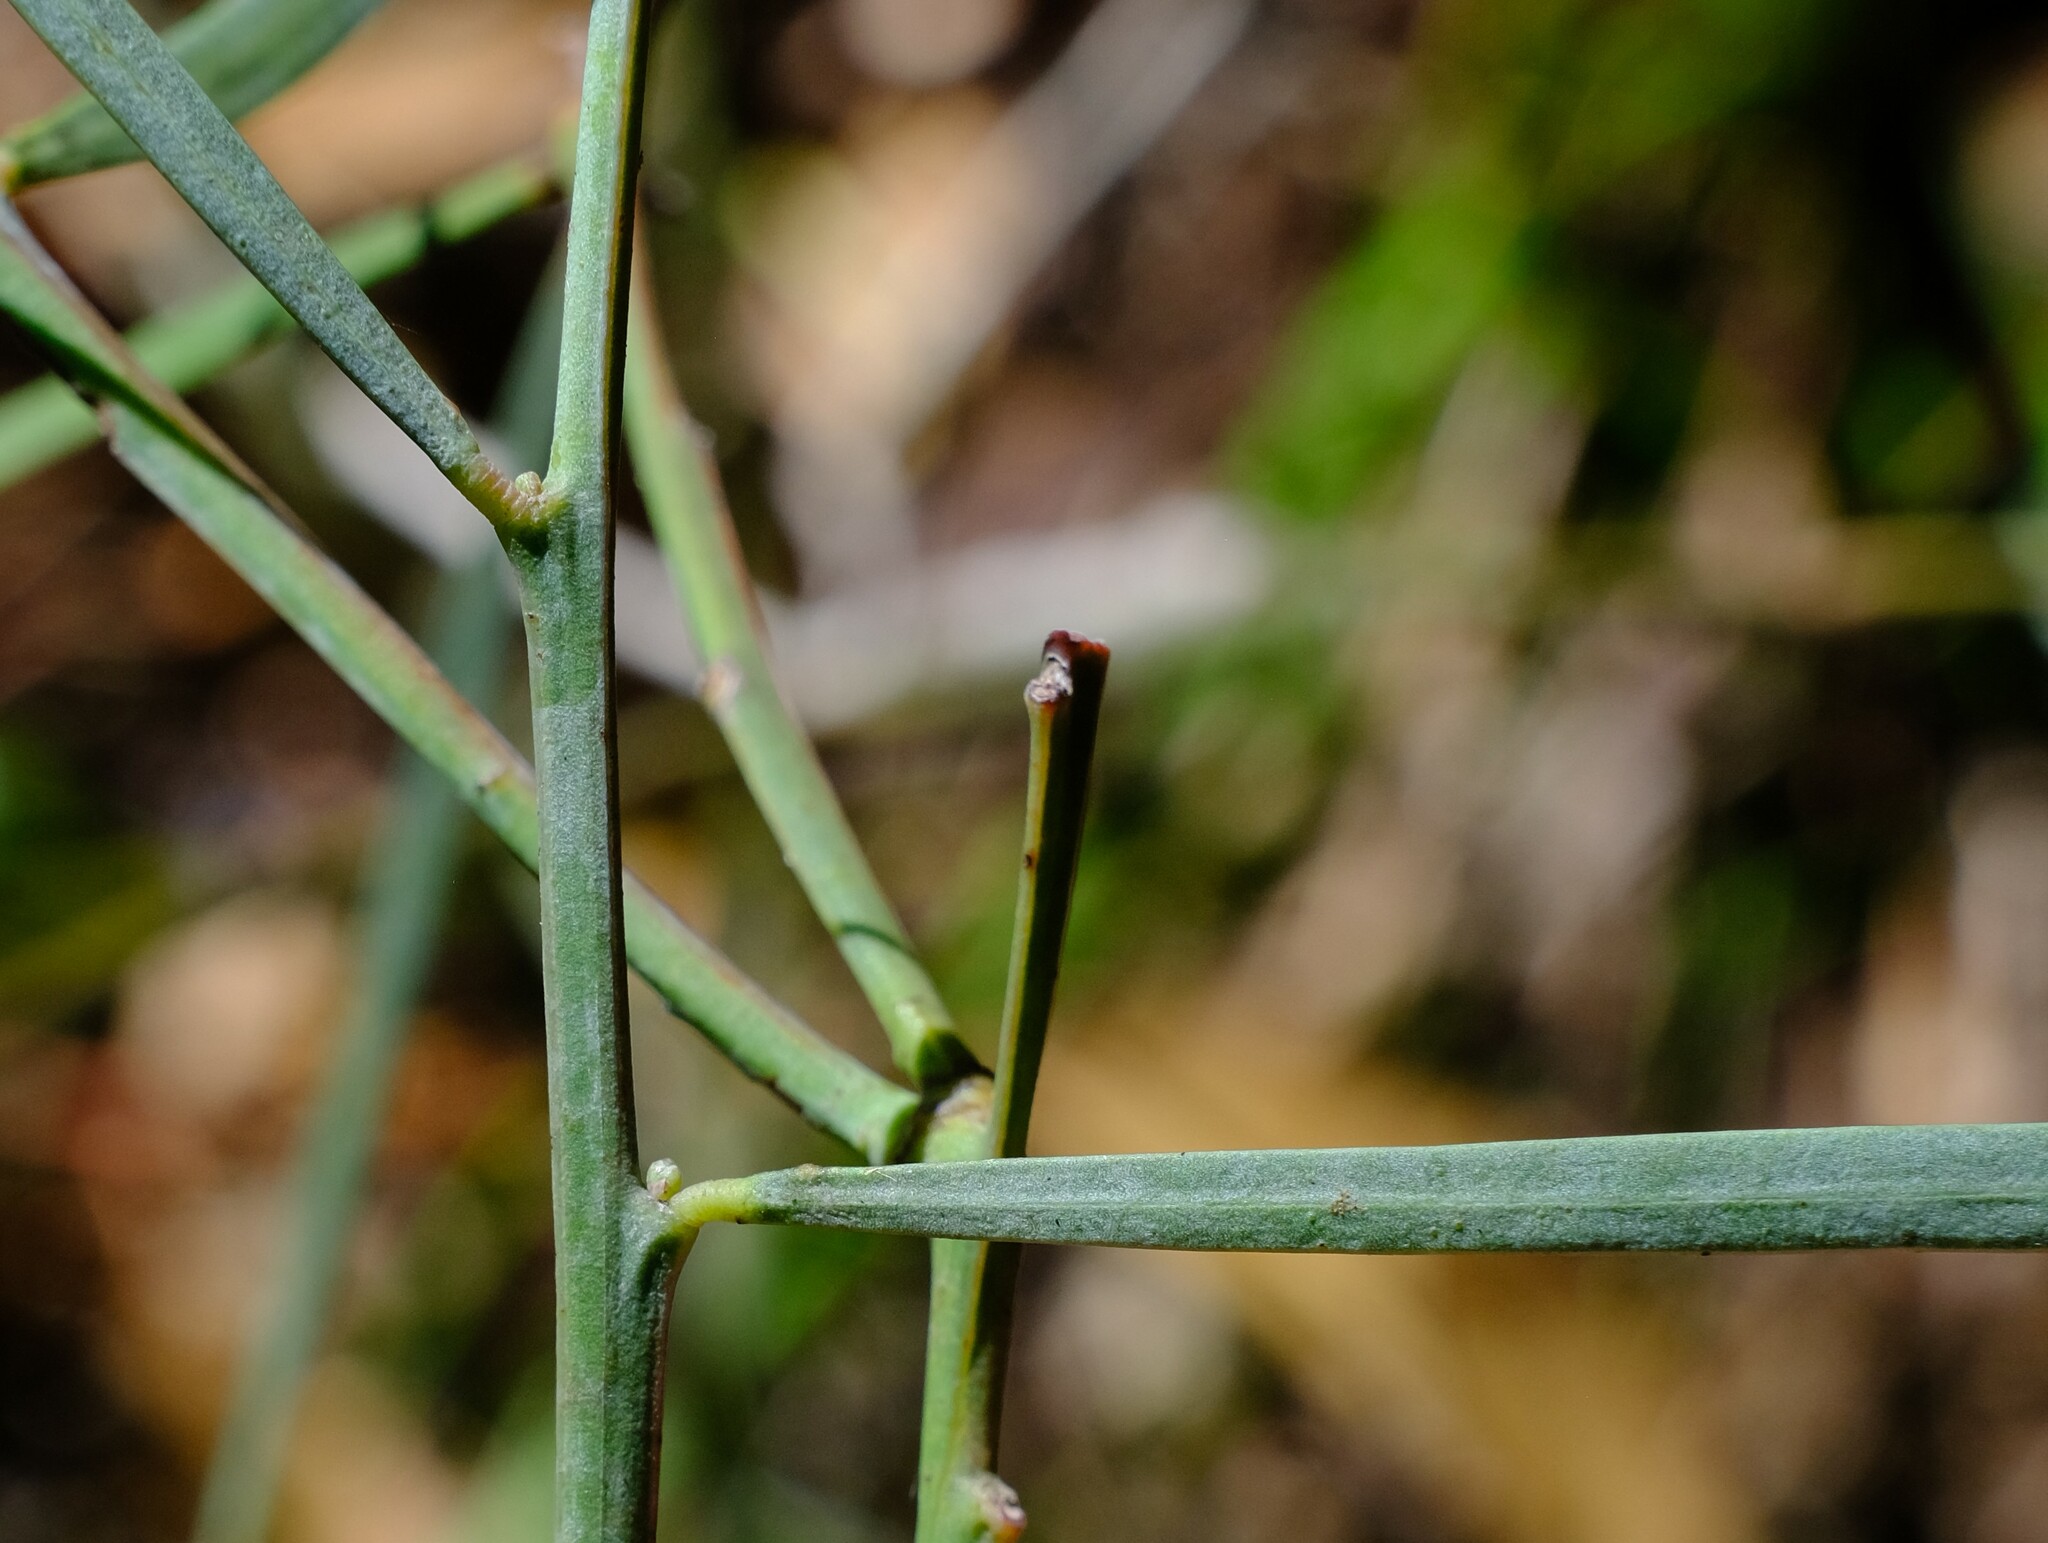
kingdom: Plantae
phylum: Tracheophyta
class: Magnoliopsida
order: Fabales
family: Fabaceae
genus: Acacia
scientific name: Acacia suaveolens
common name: Sweet acacia
